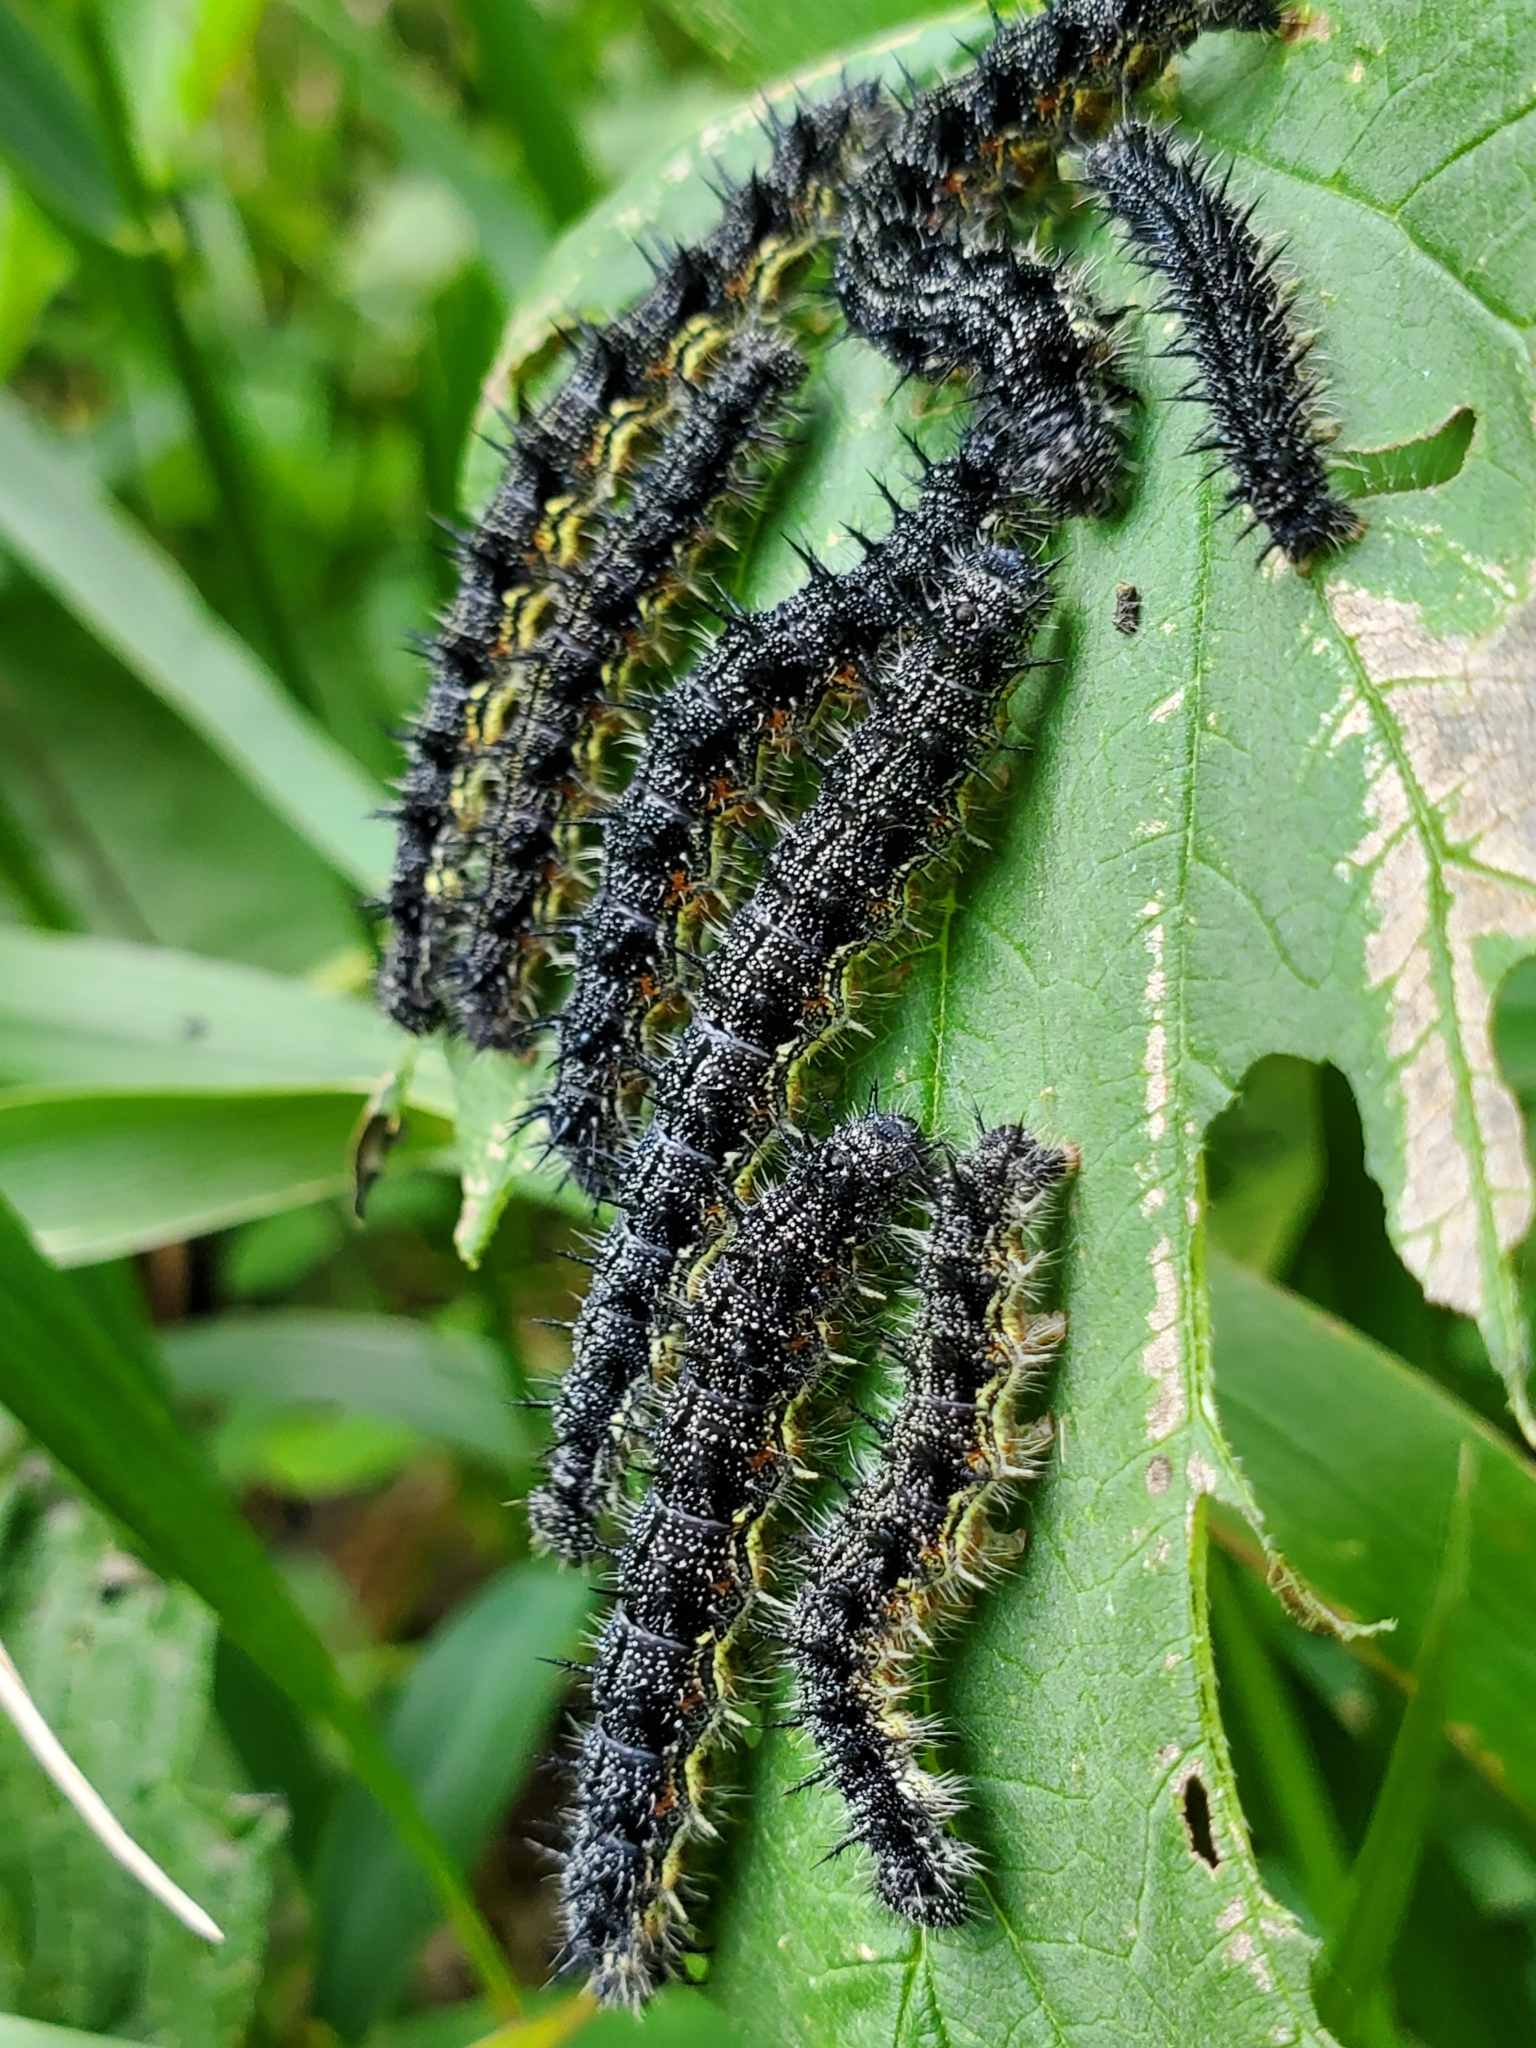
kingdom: Animalia
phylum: Arthropoda
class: Insecta
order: Lepidoptera
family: Nymphalidae
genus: Aglais
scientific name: Aglais milberti
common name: Milbert's tortoiseshell
